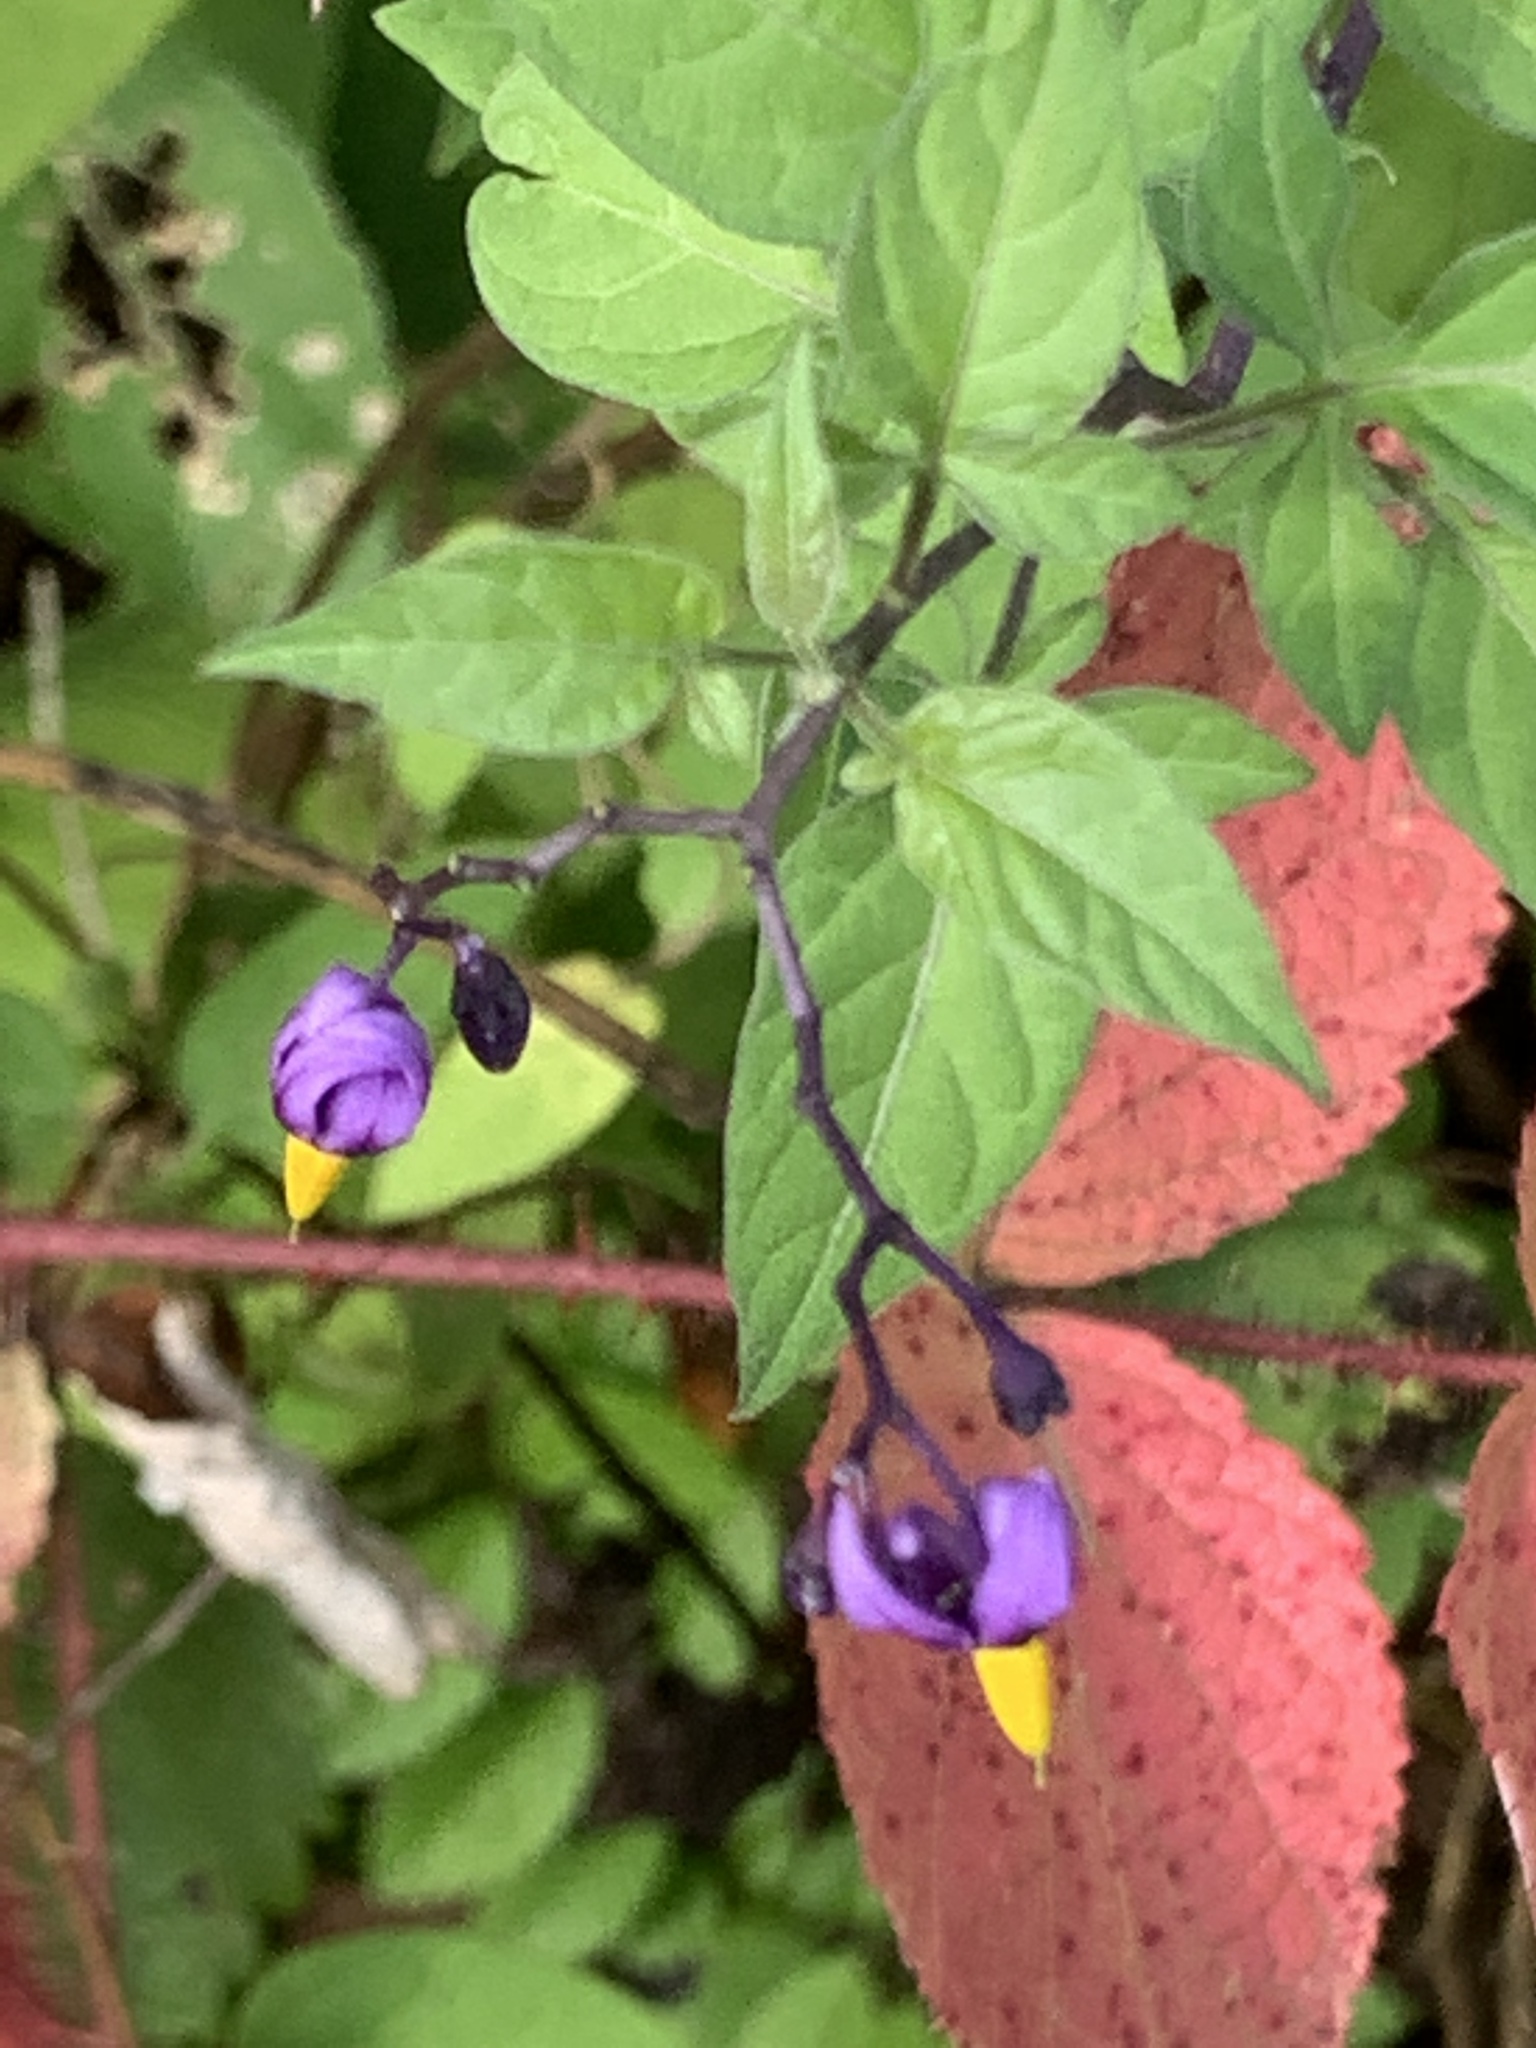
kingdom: Plantae
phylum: Tracheophyta
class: Magnoliopsida
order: Solanales
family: Solanaceae
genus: Solanum
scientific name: Solanum dulcamara
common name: Climbing nightshade
